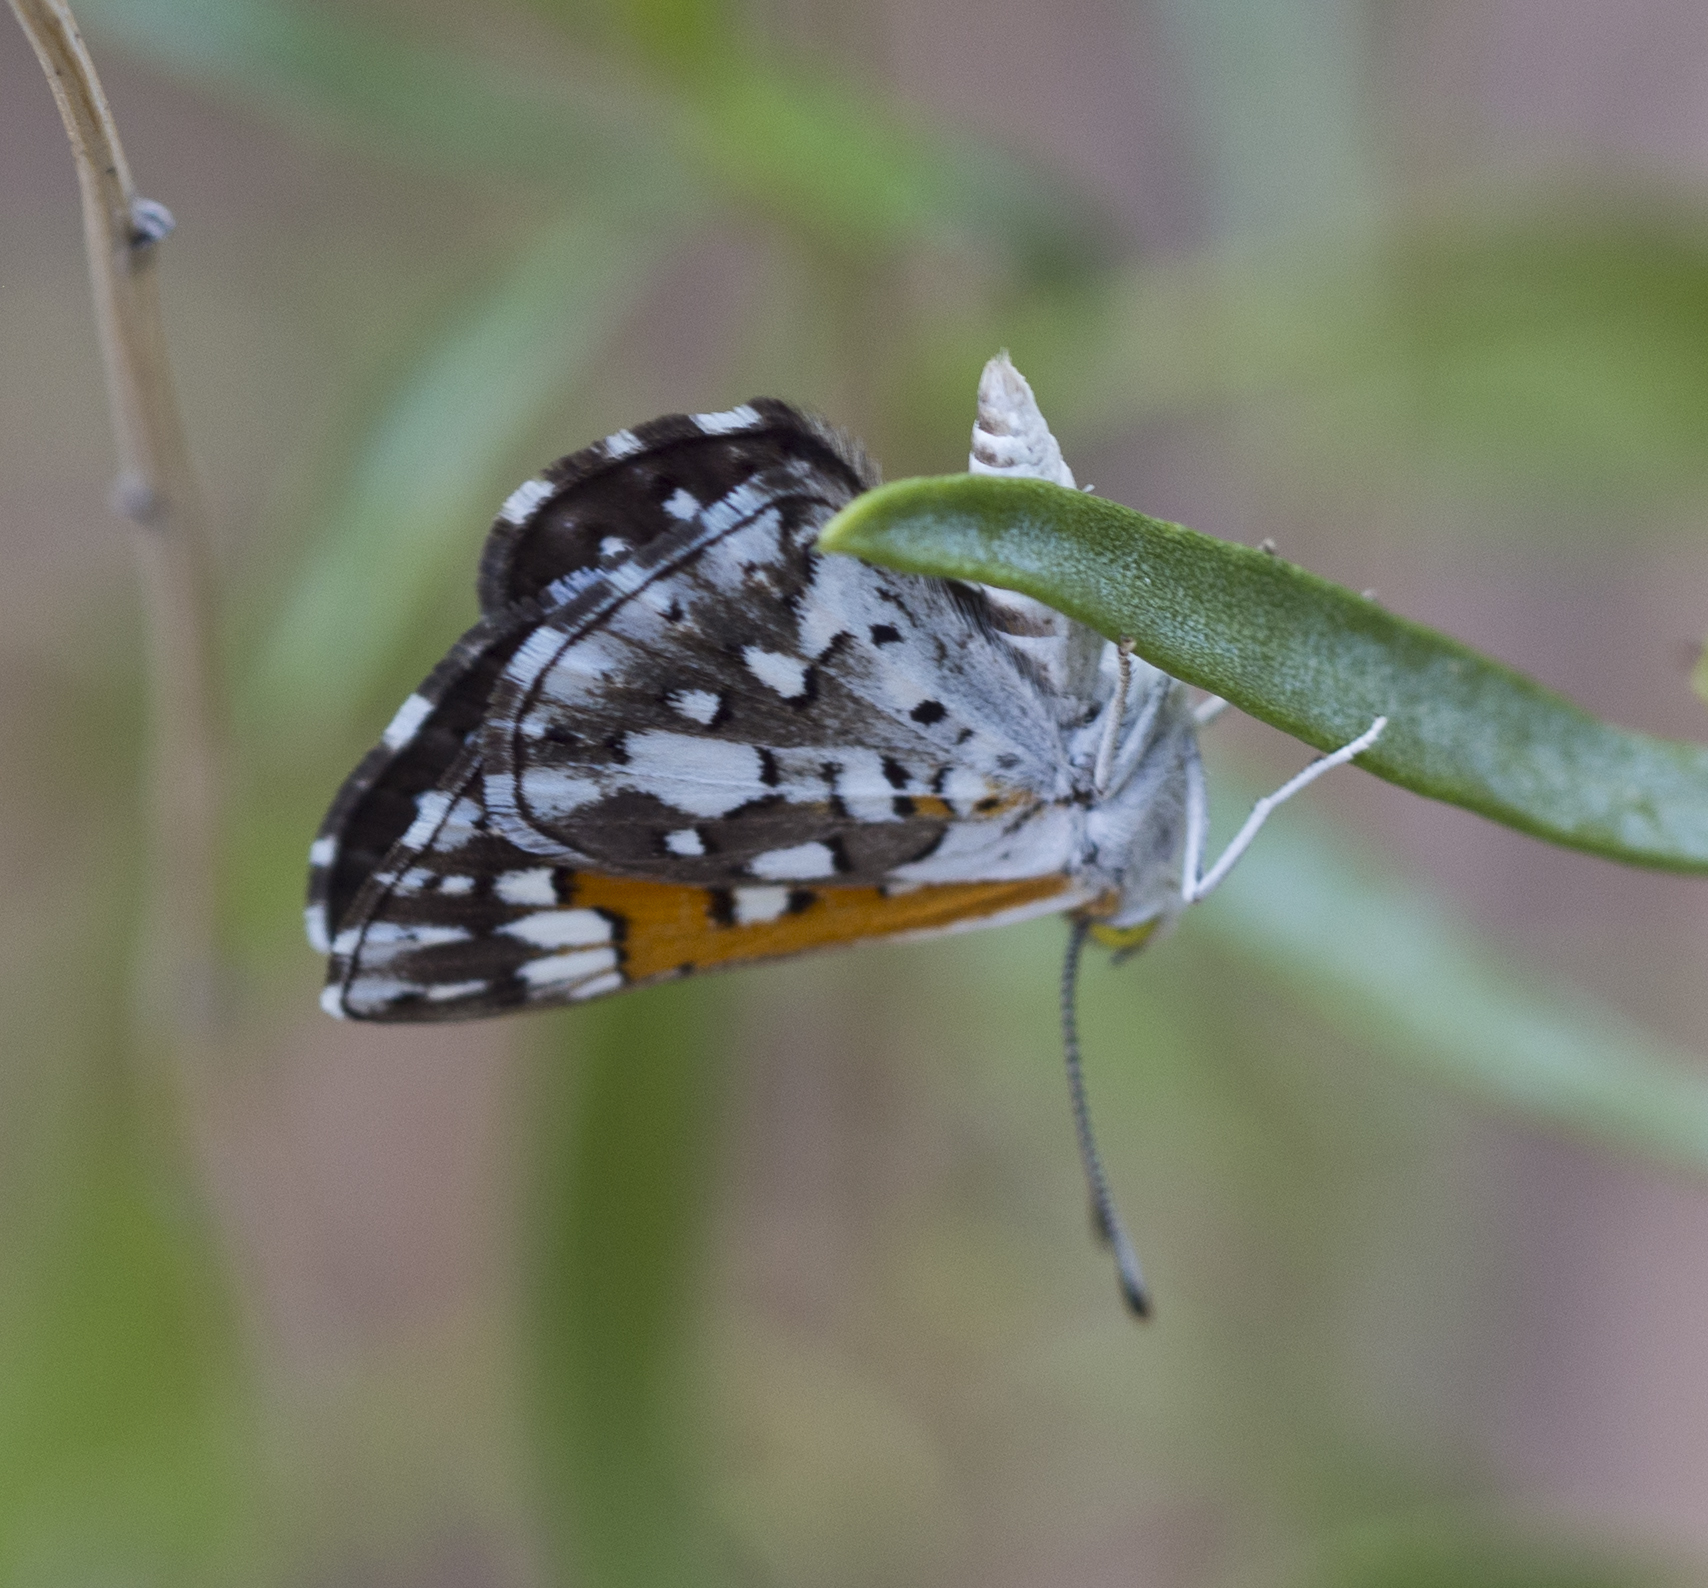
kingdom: Animalia
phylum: Arthropoda
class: Insecta
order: Lepidoptera
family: Riodinidae
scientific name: Riodinidae
